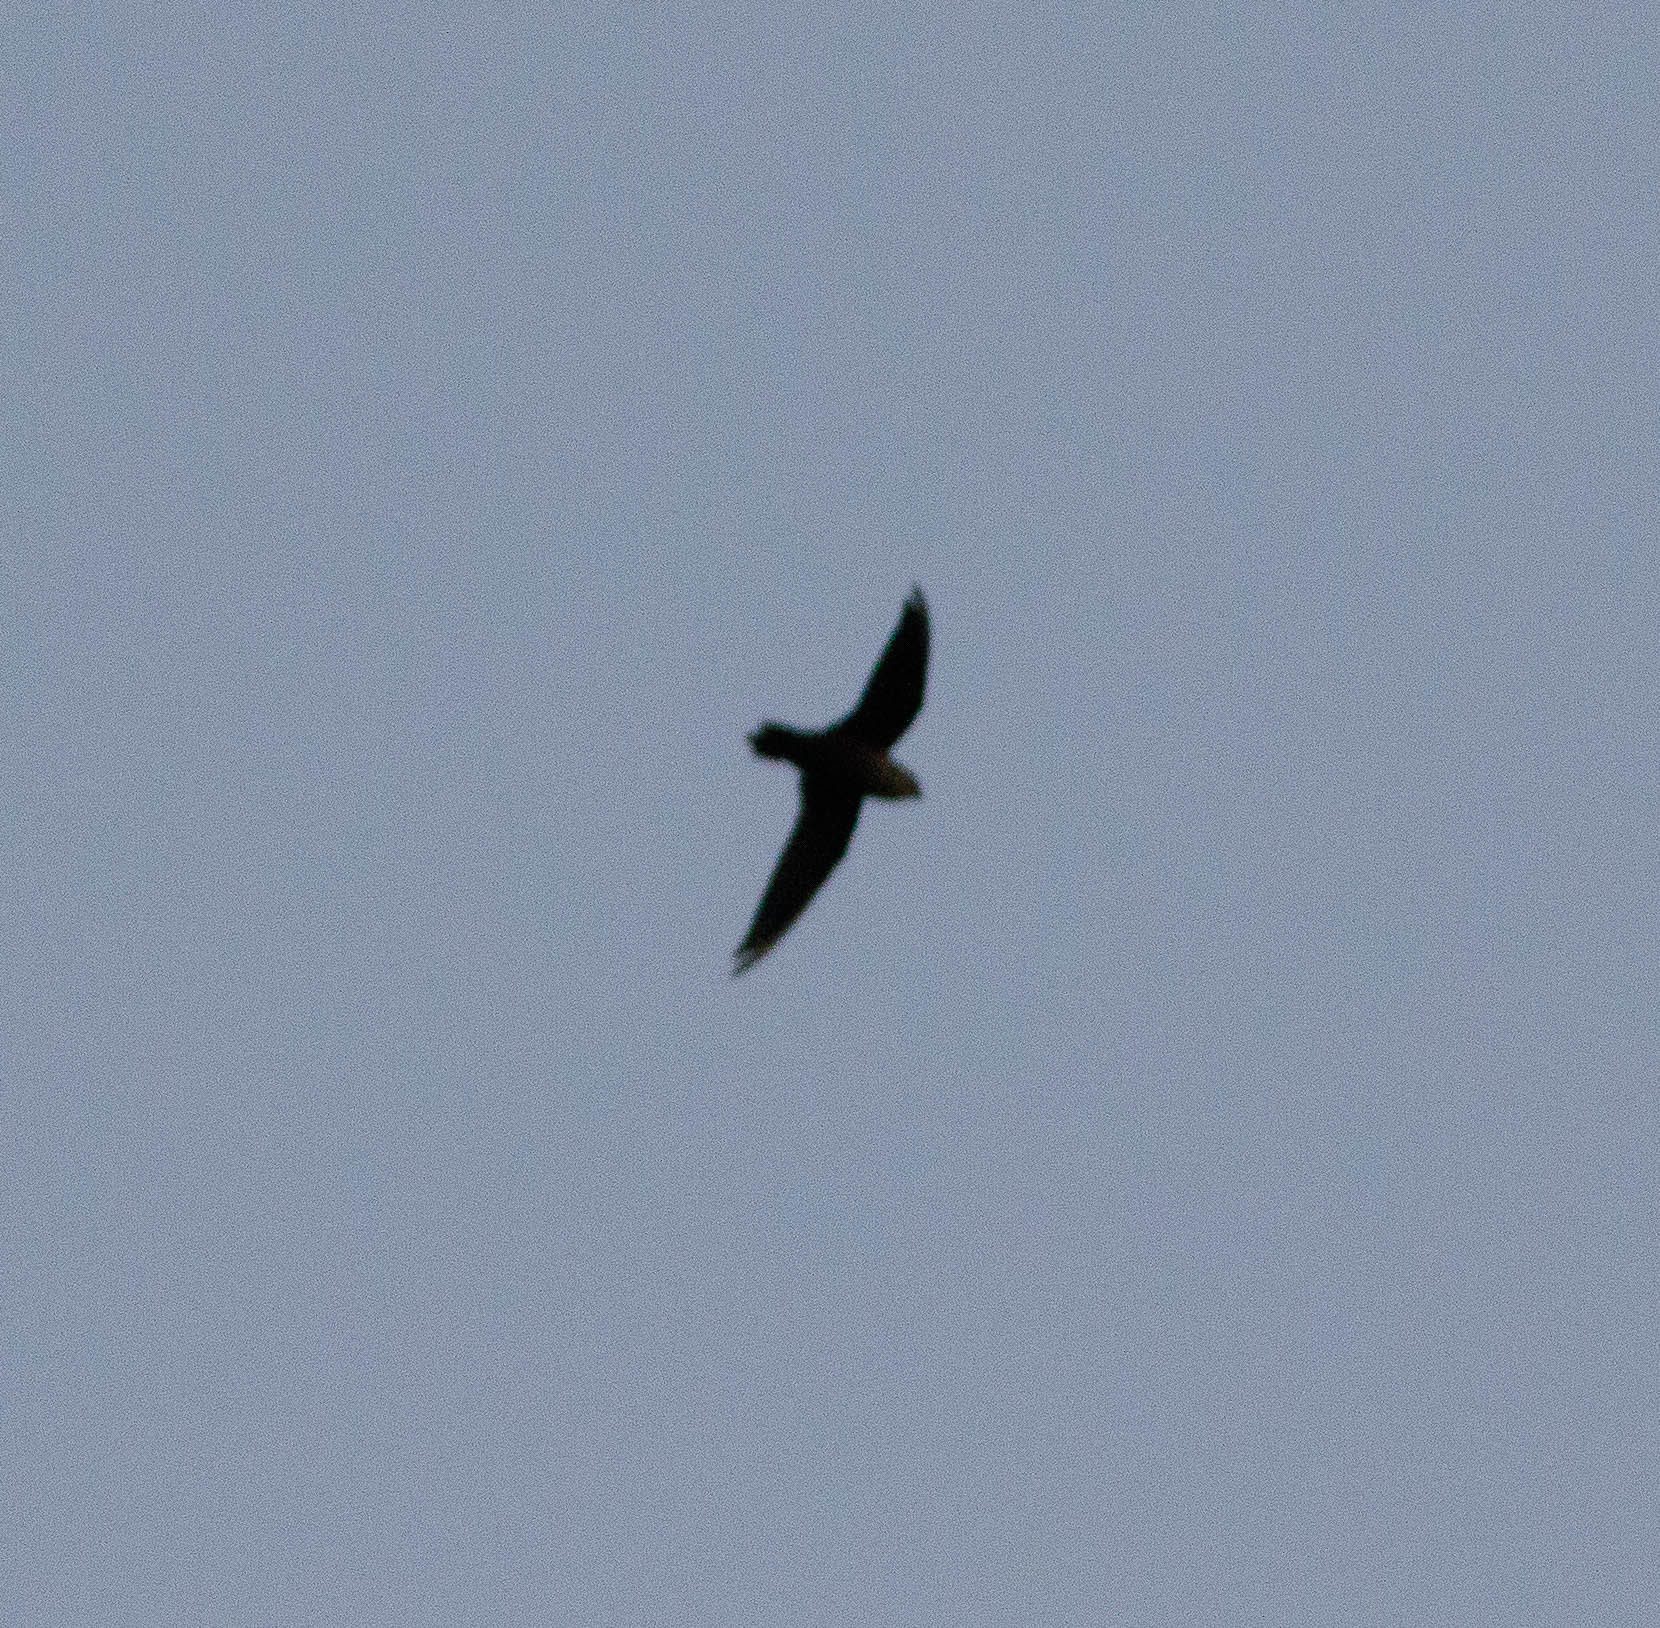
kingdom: Animalia
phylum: Chordata
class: Aves
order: Apodiformes
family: Apodidae
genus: Chaetura
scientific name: Chaetura pelagica
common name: Chimney swift
